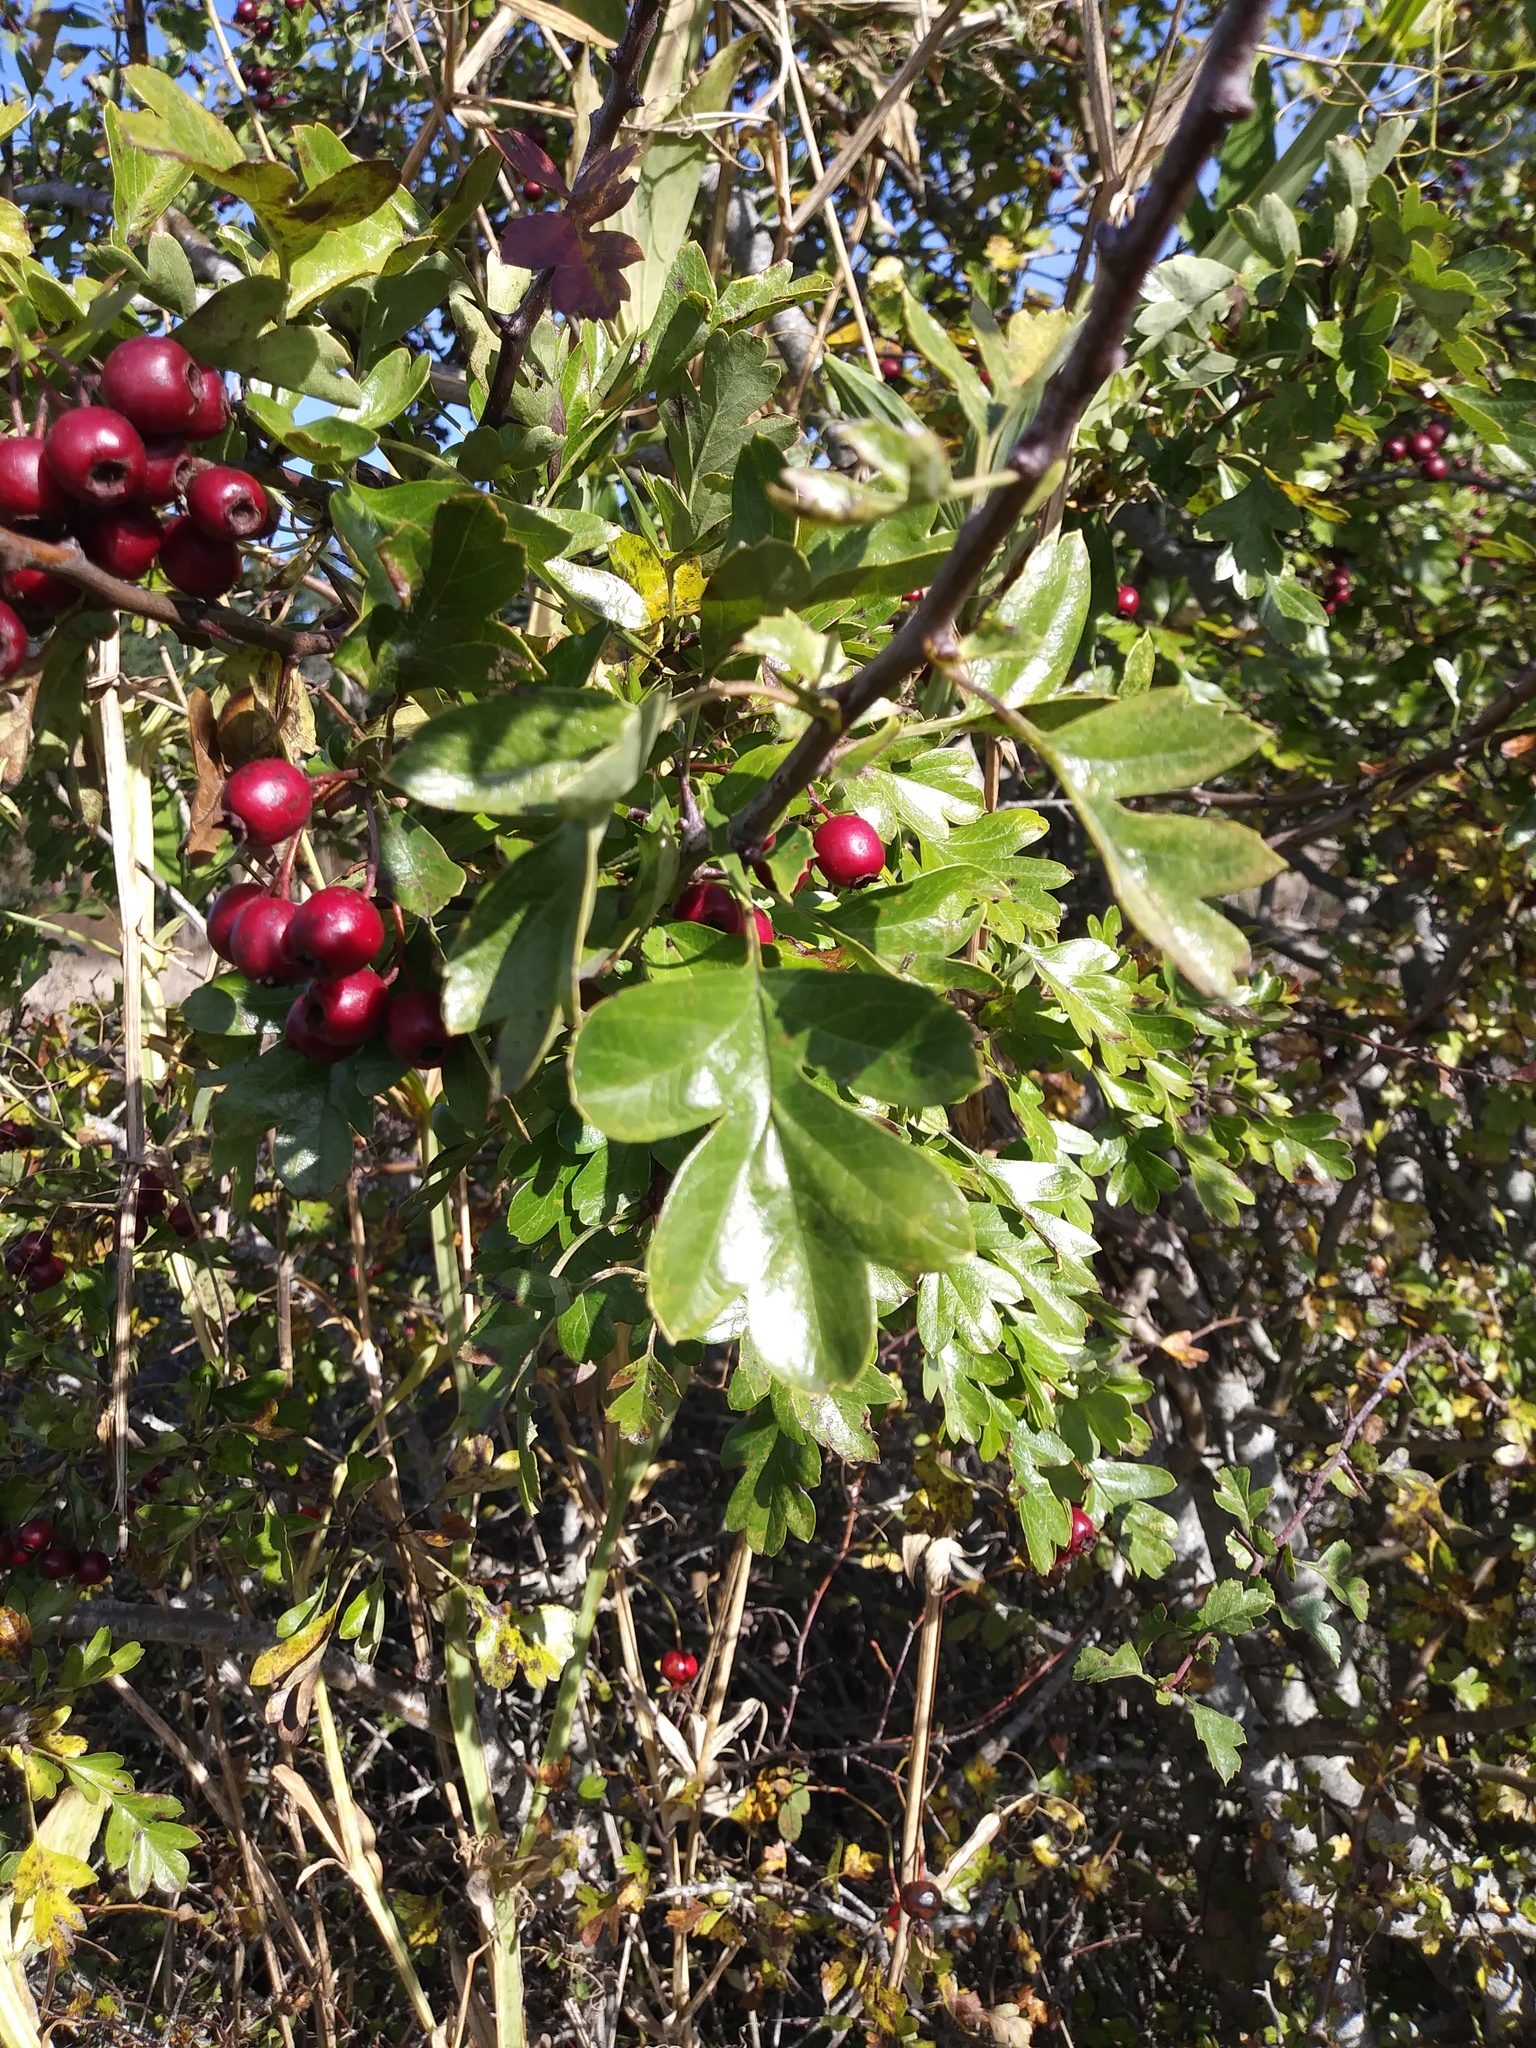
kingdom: Plantae
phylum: Tracheophyta
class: Magnoliopsida
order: Rosales
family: Rosaceae
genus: Crataegus
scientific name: Crataegus monogyna
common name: Hawthorn
